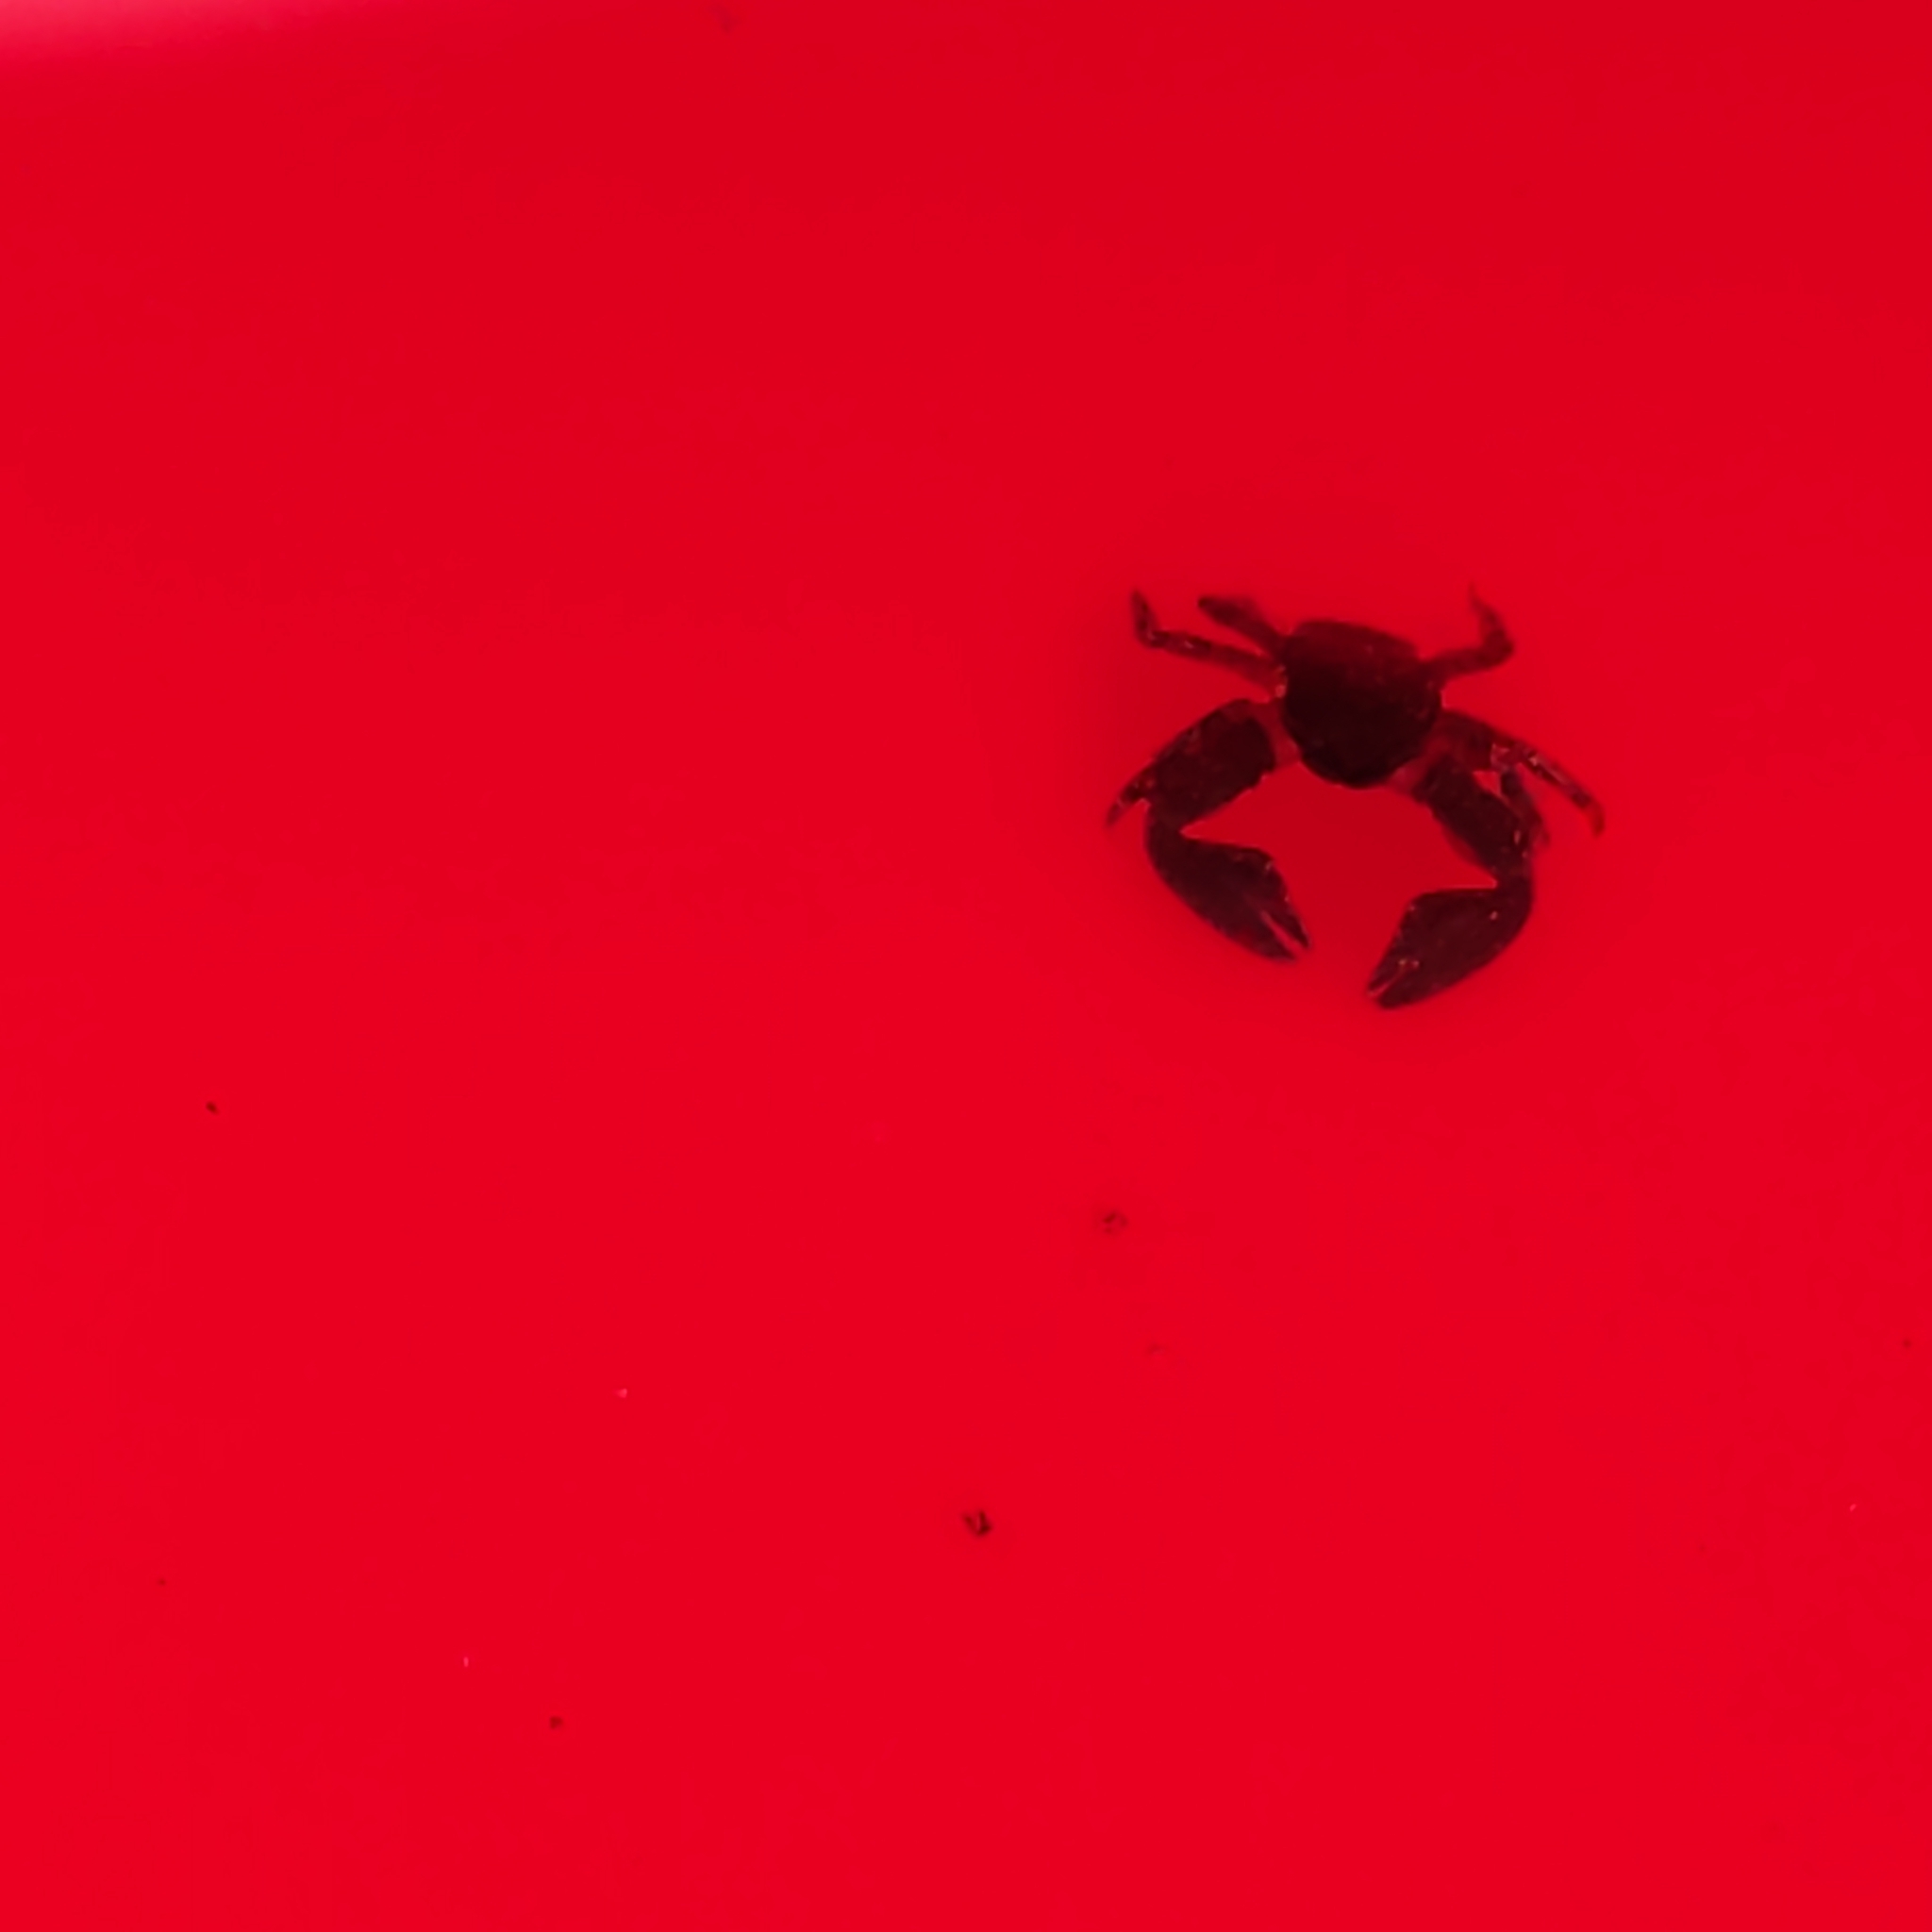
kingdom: Animalia
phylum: Arthropoda
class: Malacostraca
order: Decapoda
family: Porcellanidae
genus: Petrolisthes
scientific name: Petrolisthes elongatus
